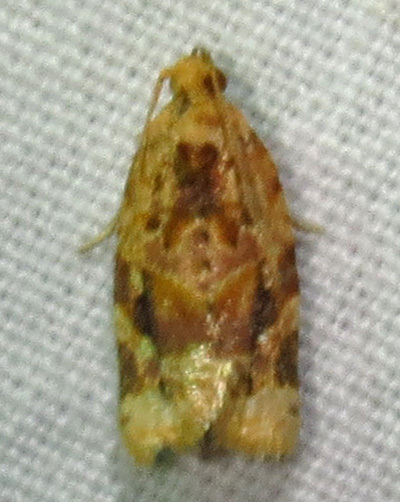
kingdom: Animalia
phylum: Arthropoda
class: Insecta
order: Lepidoptera
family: Tortricidae
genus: Argyrotaenia
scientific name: Argyrotaenia velutinana
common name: Red-banded leafroller moth
